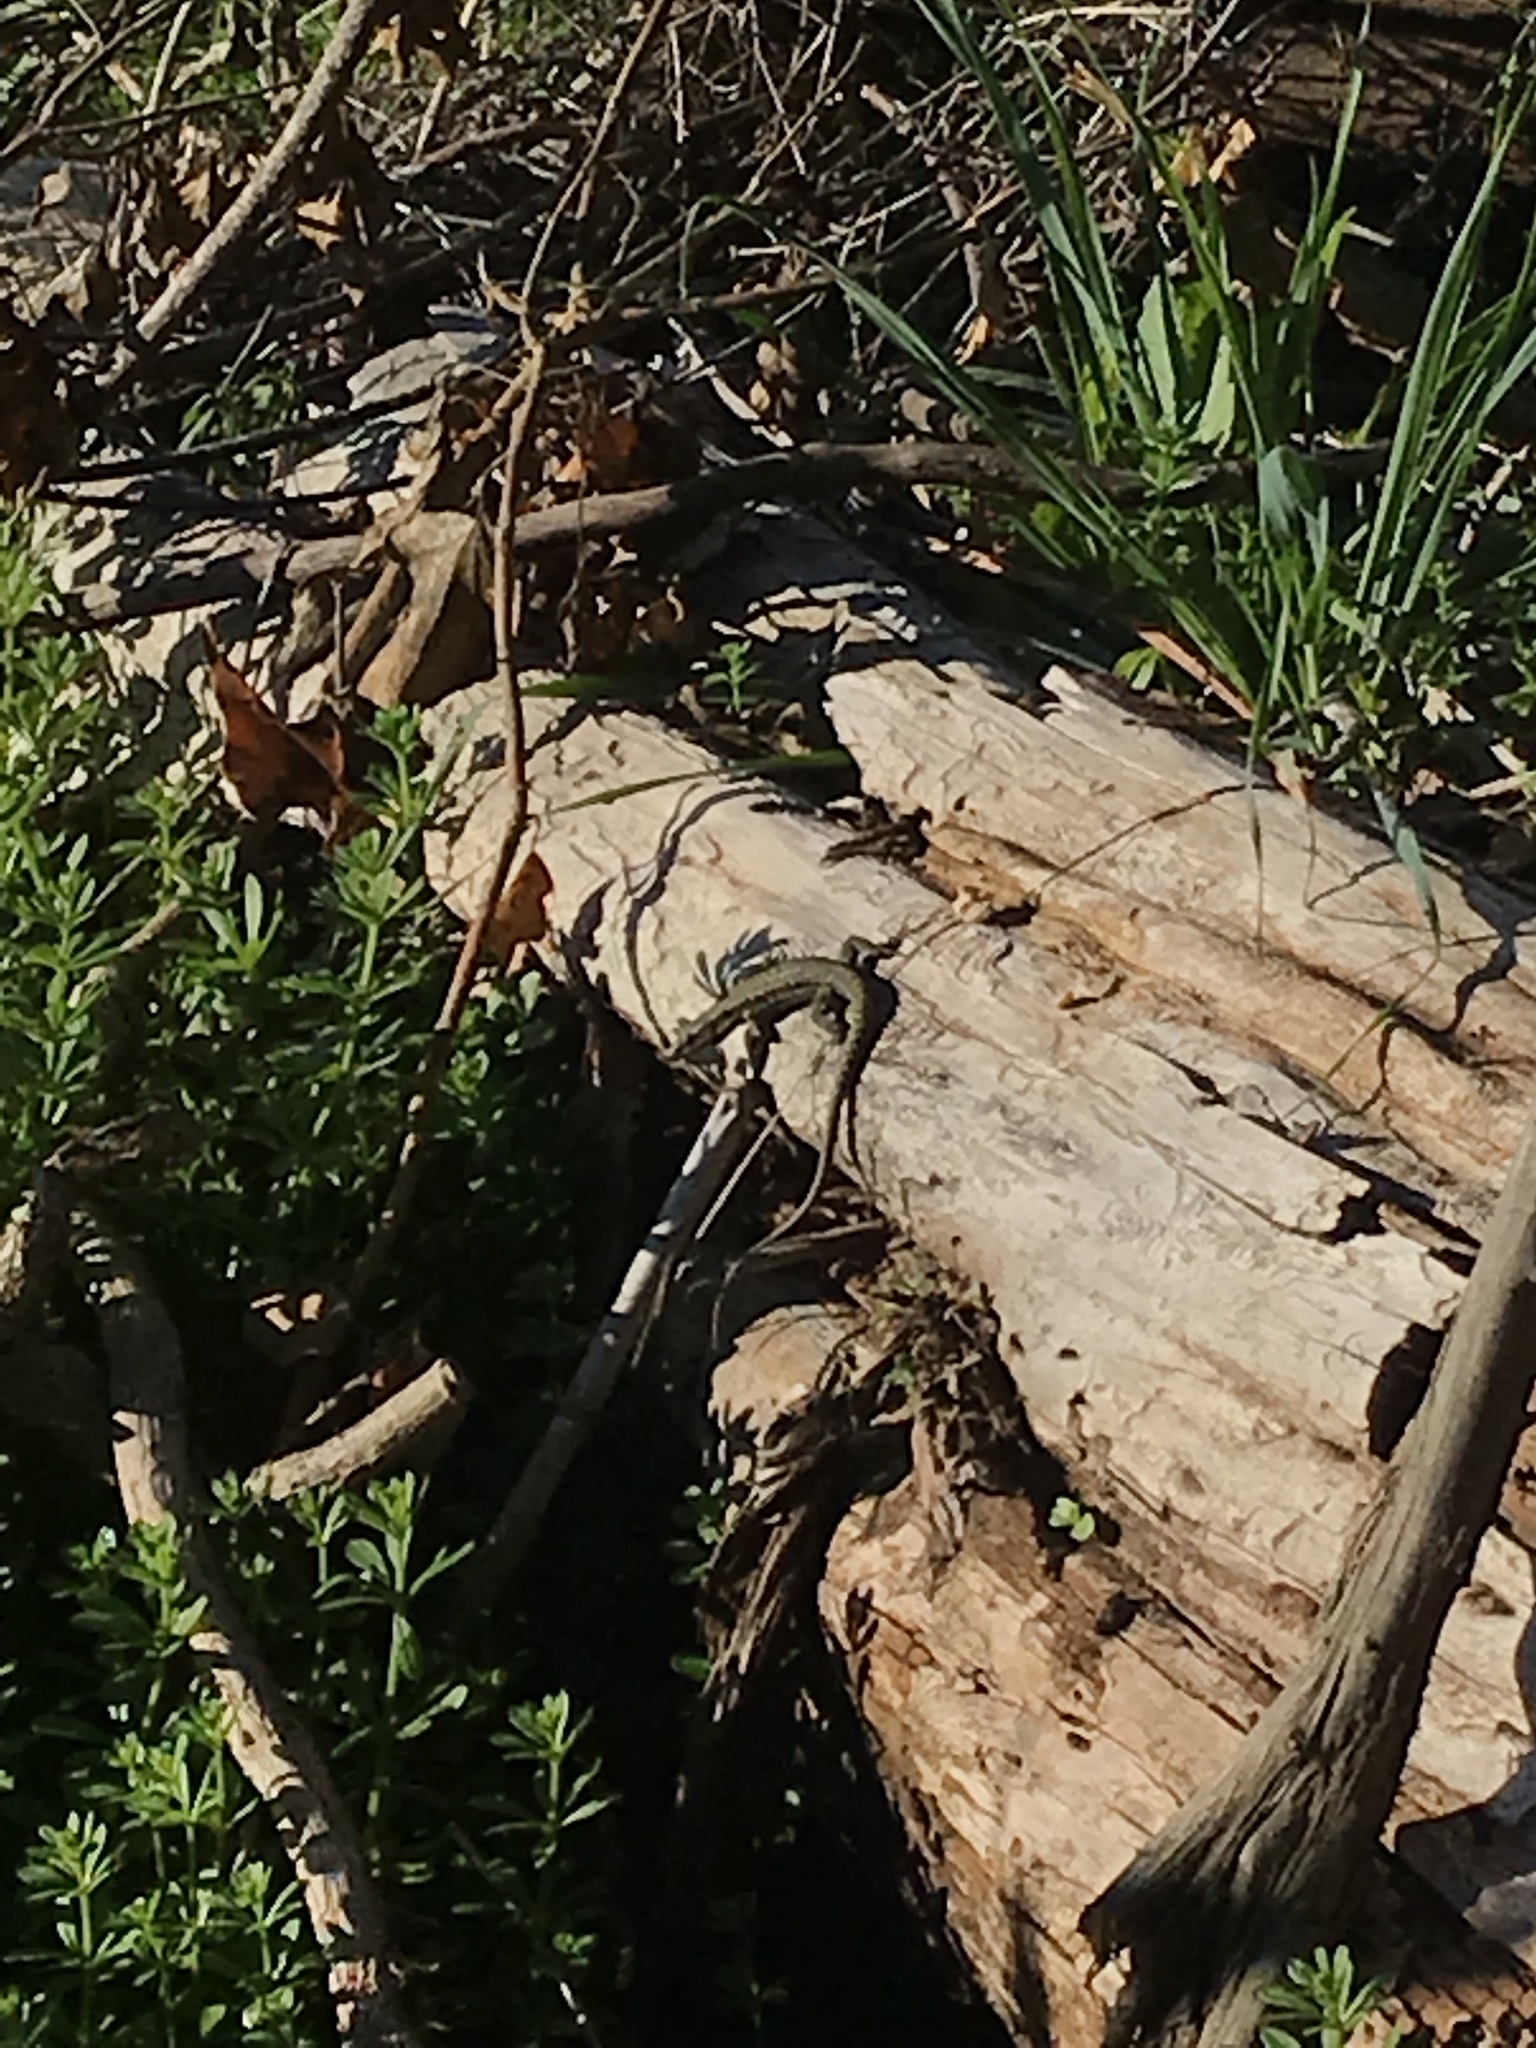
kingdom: Animalia
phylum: Chordata
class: Squamata
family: Lacertidae
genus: Podarcis
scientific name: Podarcis muralis
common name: Common wall lizard
